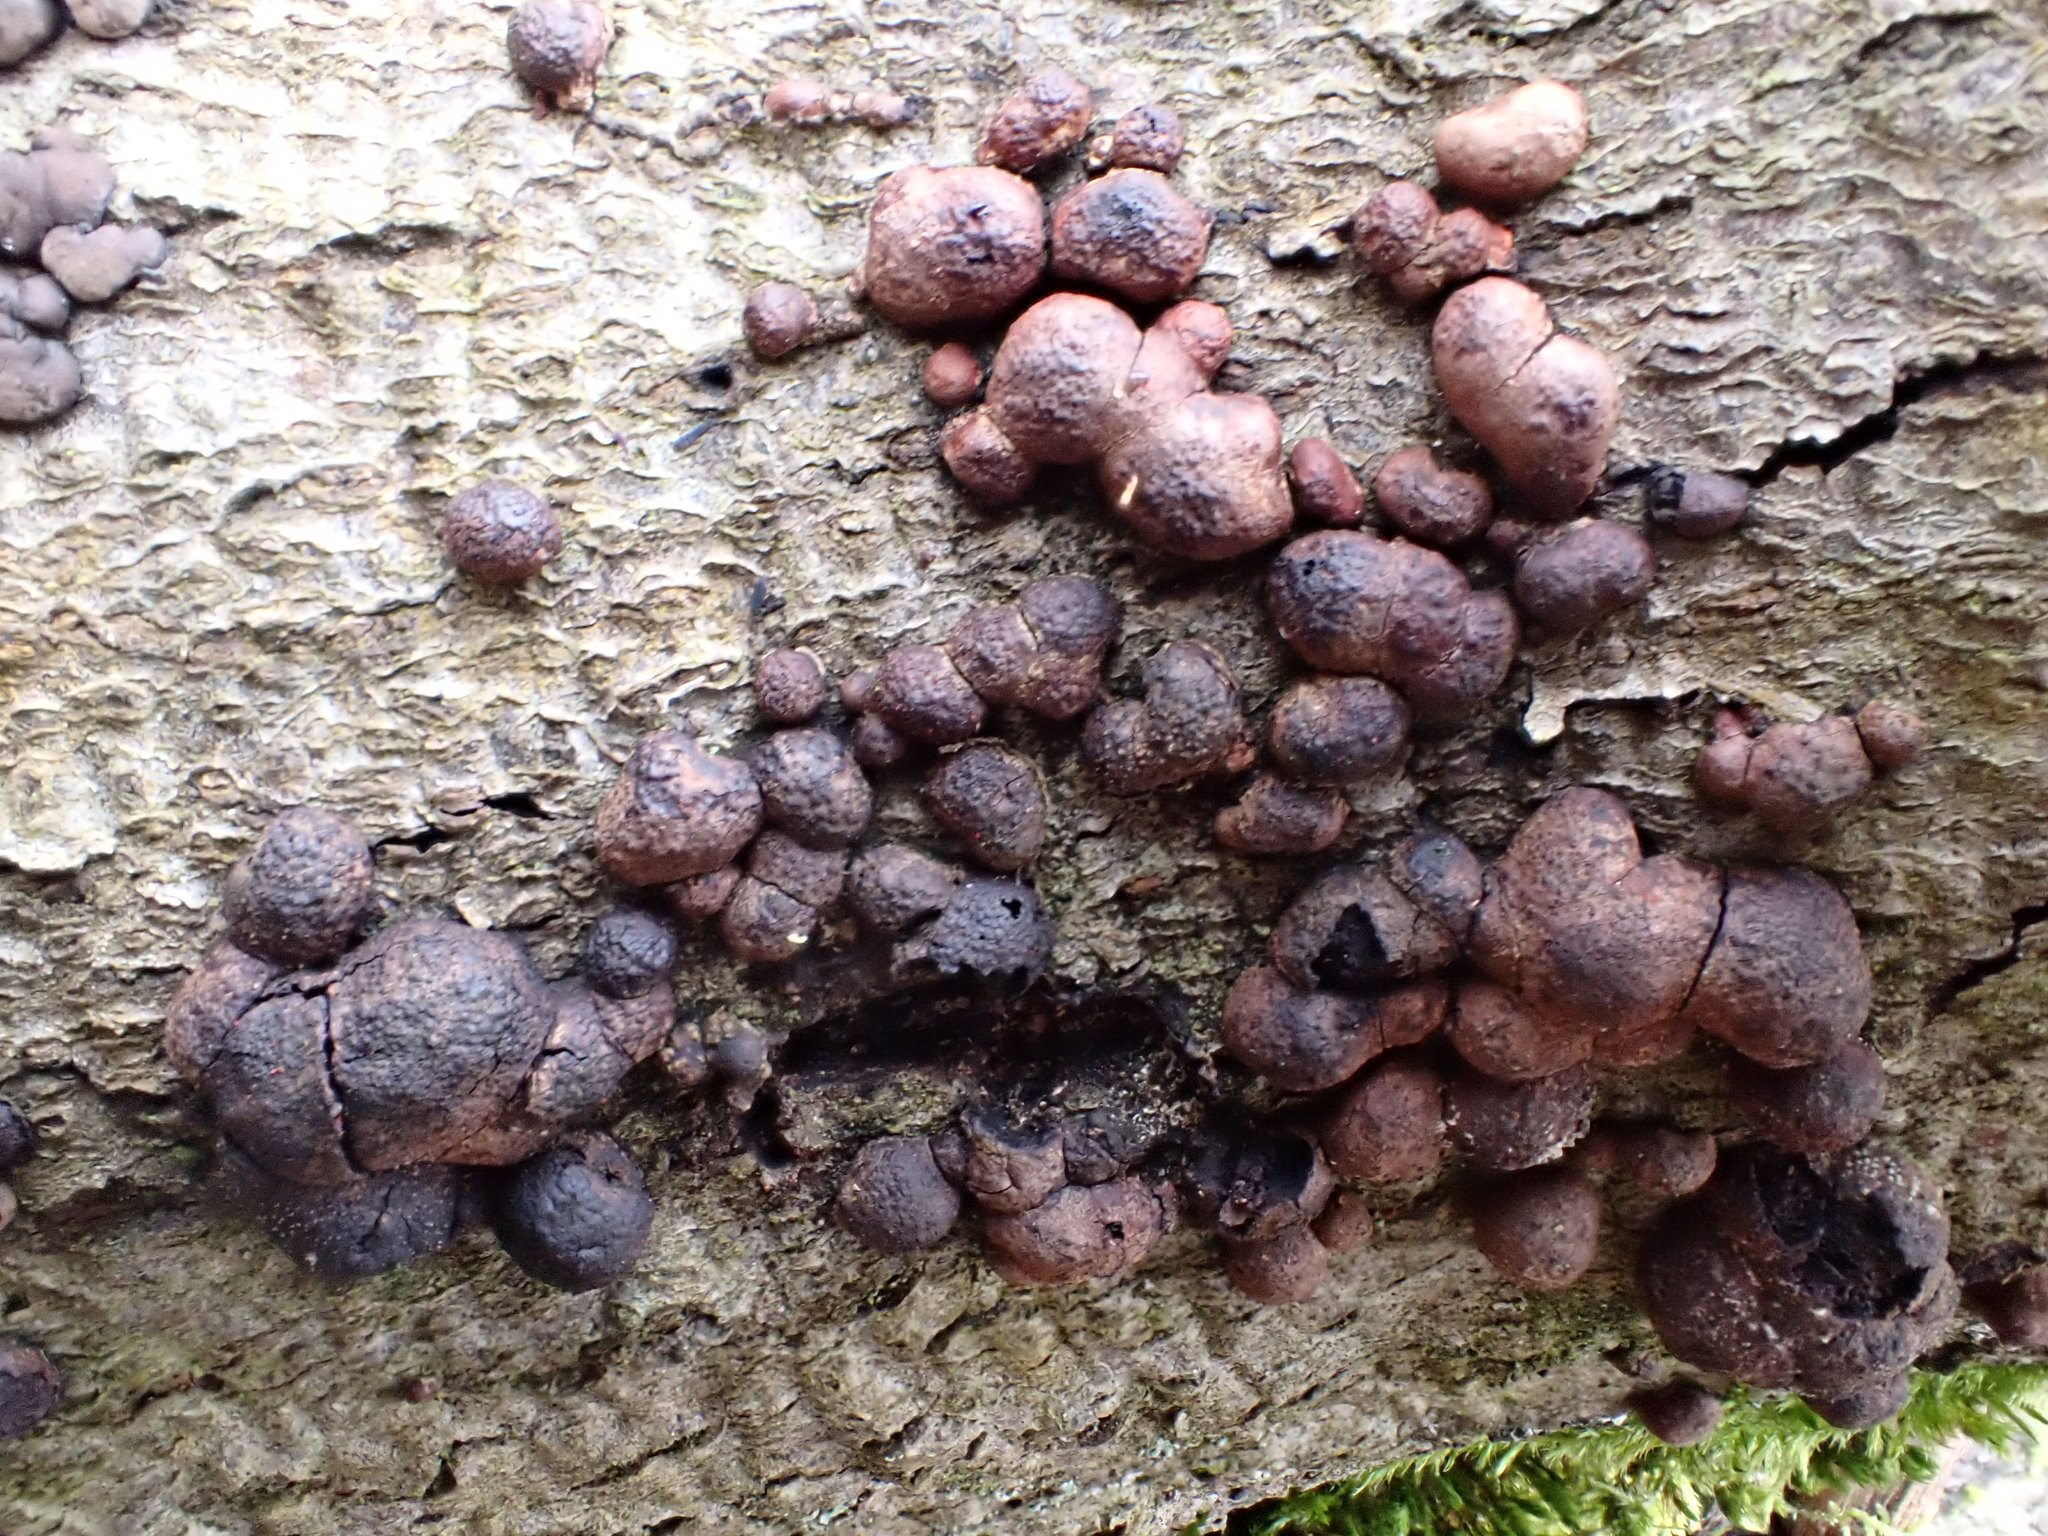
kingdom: Fungi
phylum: Ascomycota
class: Sordariomycetes
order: Xylariales
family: Hypoxylaceae
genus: Hypoxylon
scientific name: Hypoxylon fragiforme
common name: Beech woodwart
